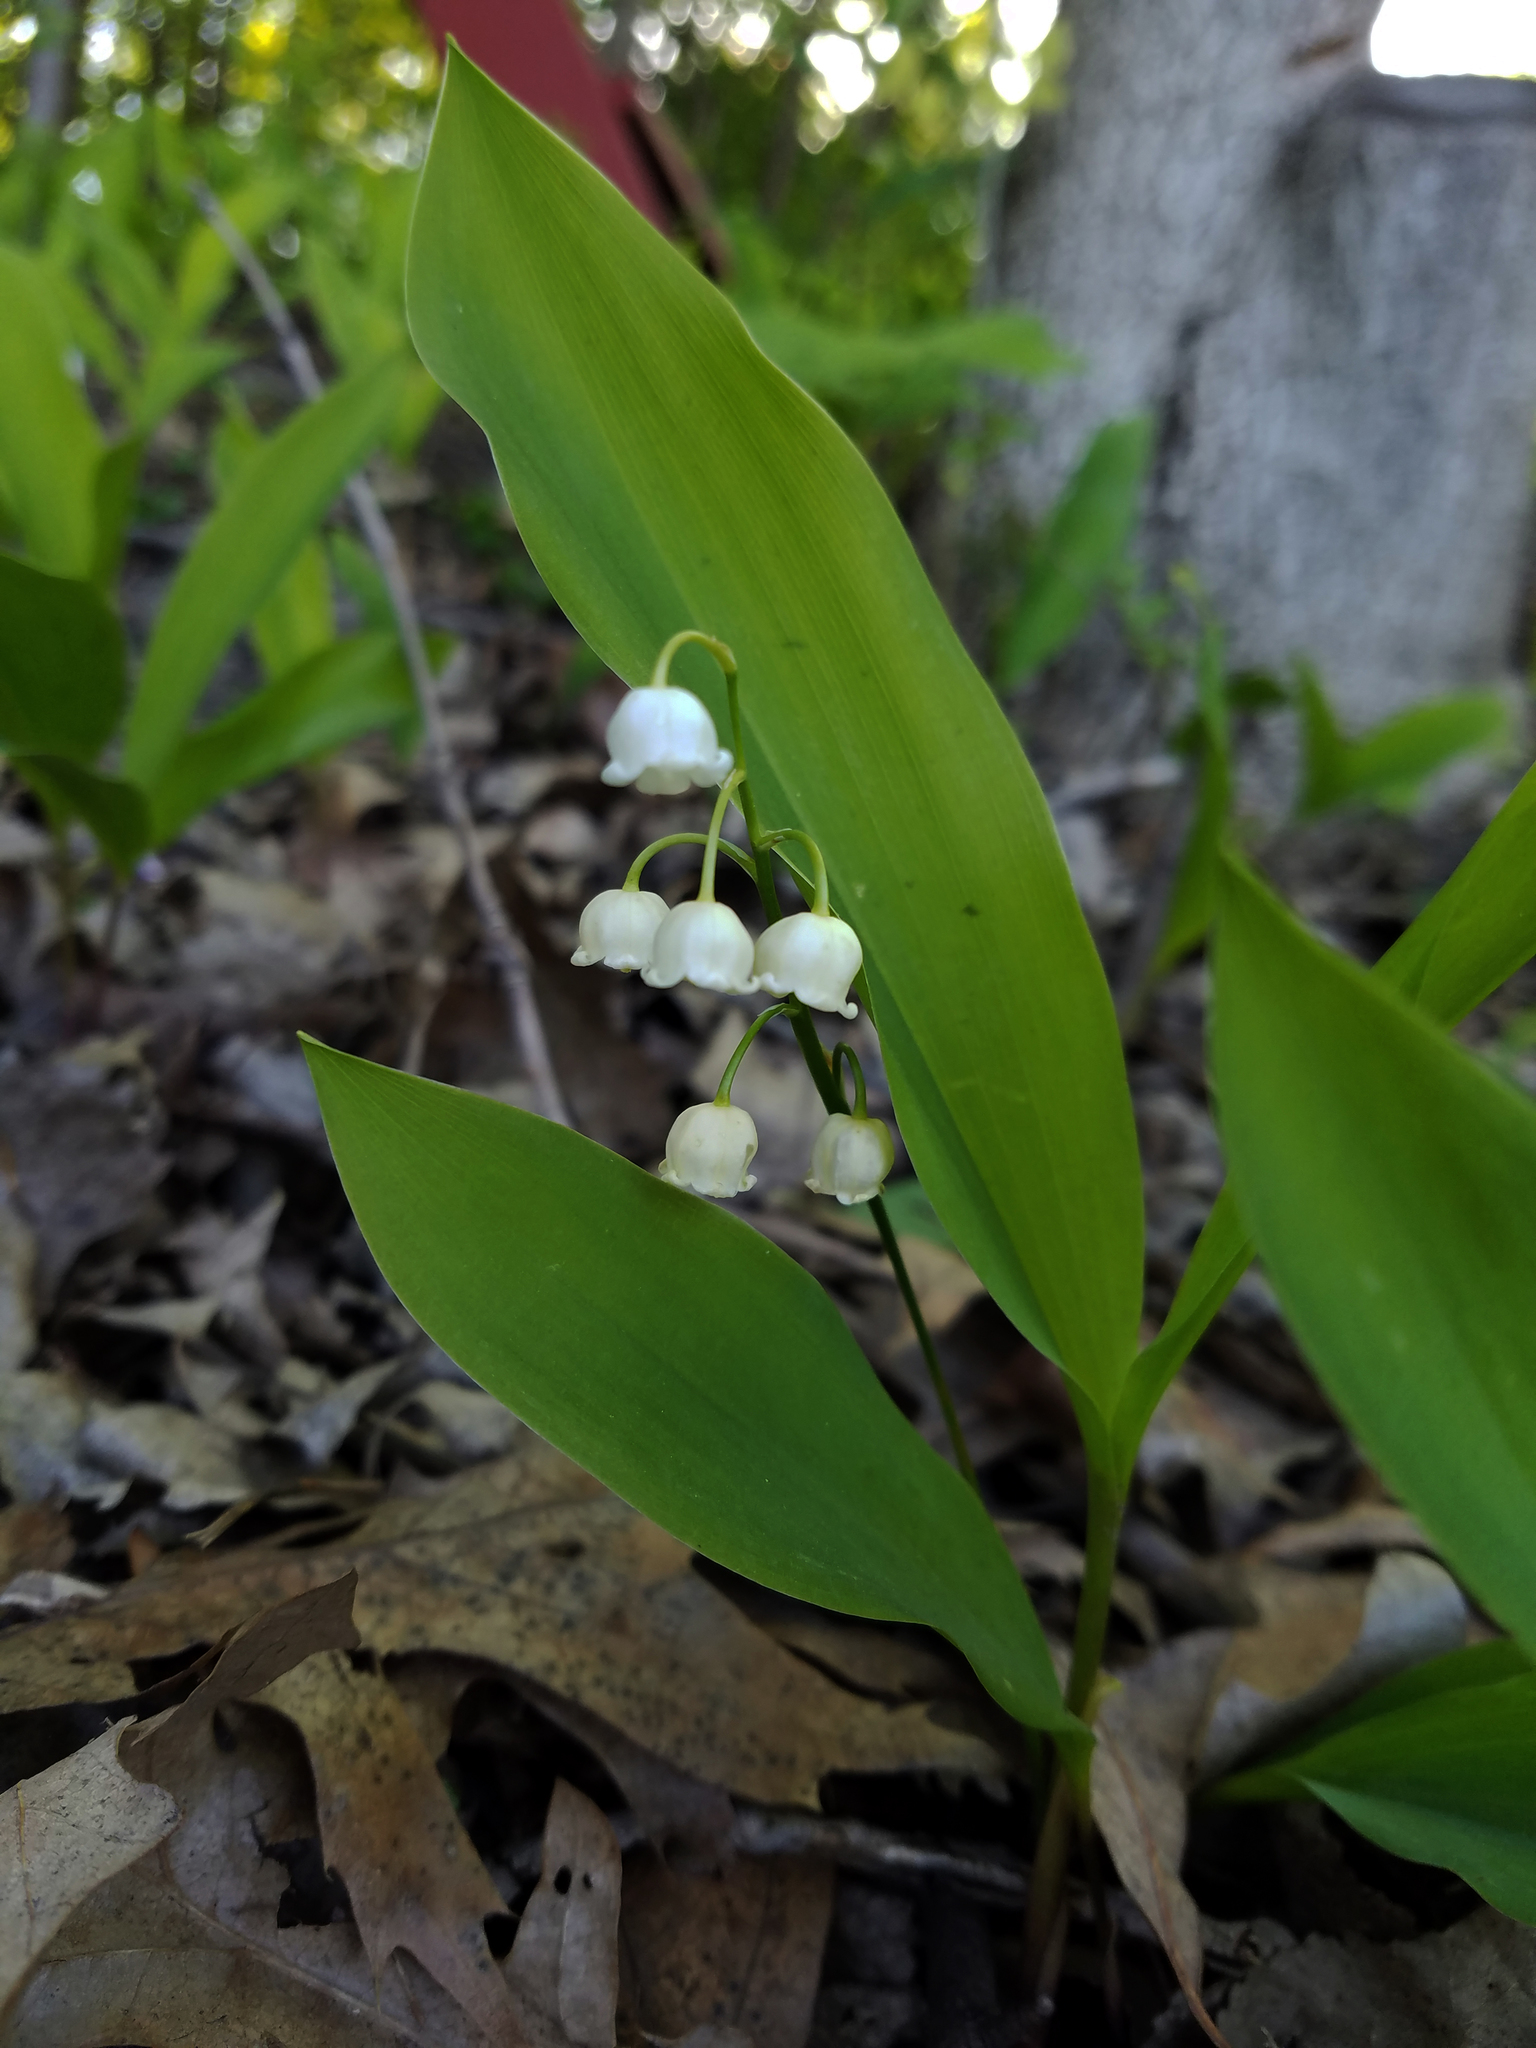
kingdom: Plantae
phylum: Tracheophyta
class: Liliopsida
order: Asparagales
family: Asparagaceae
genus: Convallaria
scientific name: Convallaria majalis
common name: Lily-of-the-valley
